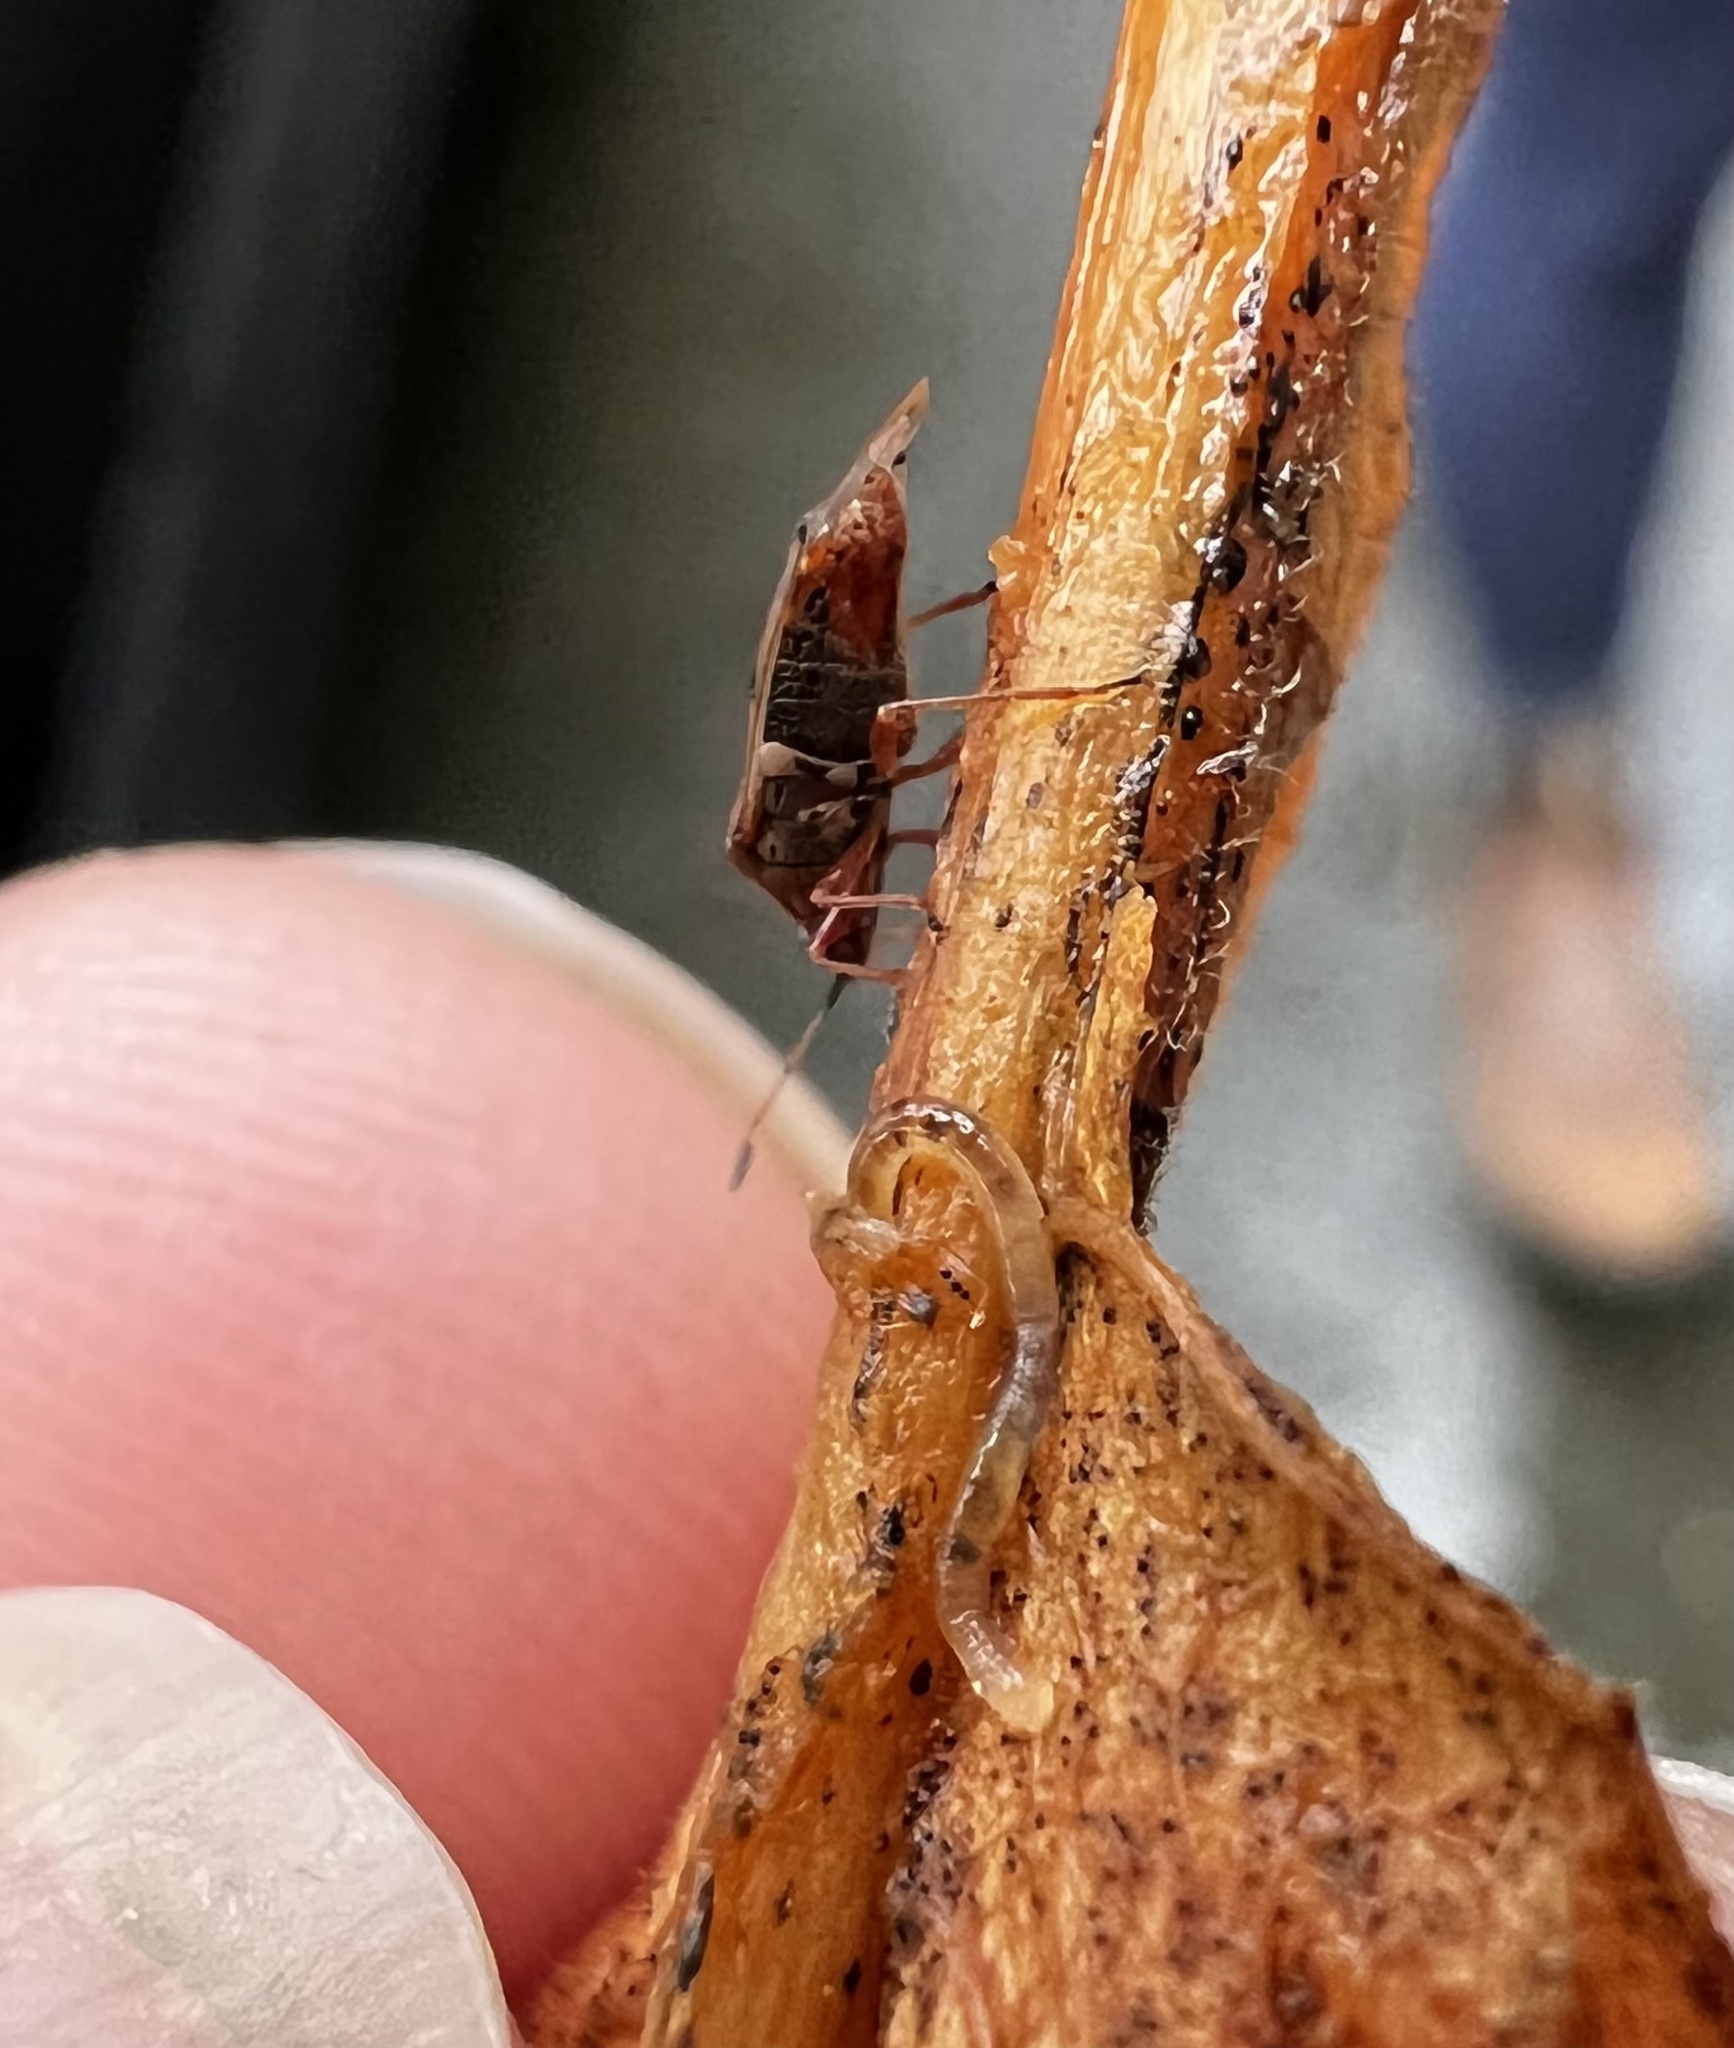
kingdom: Animalia
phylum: Arthropoda
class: Insecta
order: Hemiptera
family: Lygaeidae
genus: Kleidocerys
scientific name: Kleidocerys resedae
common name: Birch catkin bug
